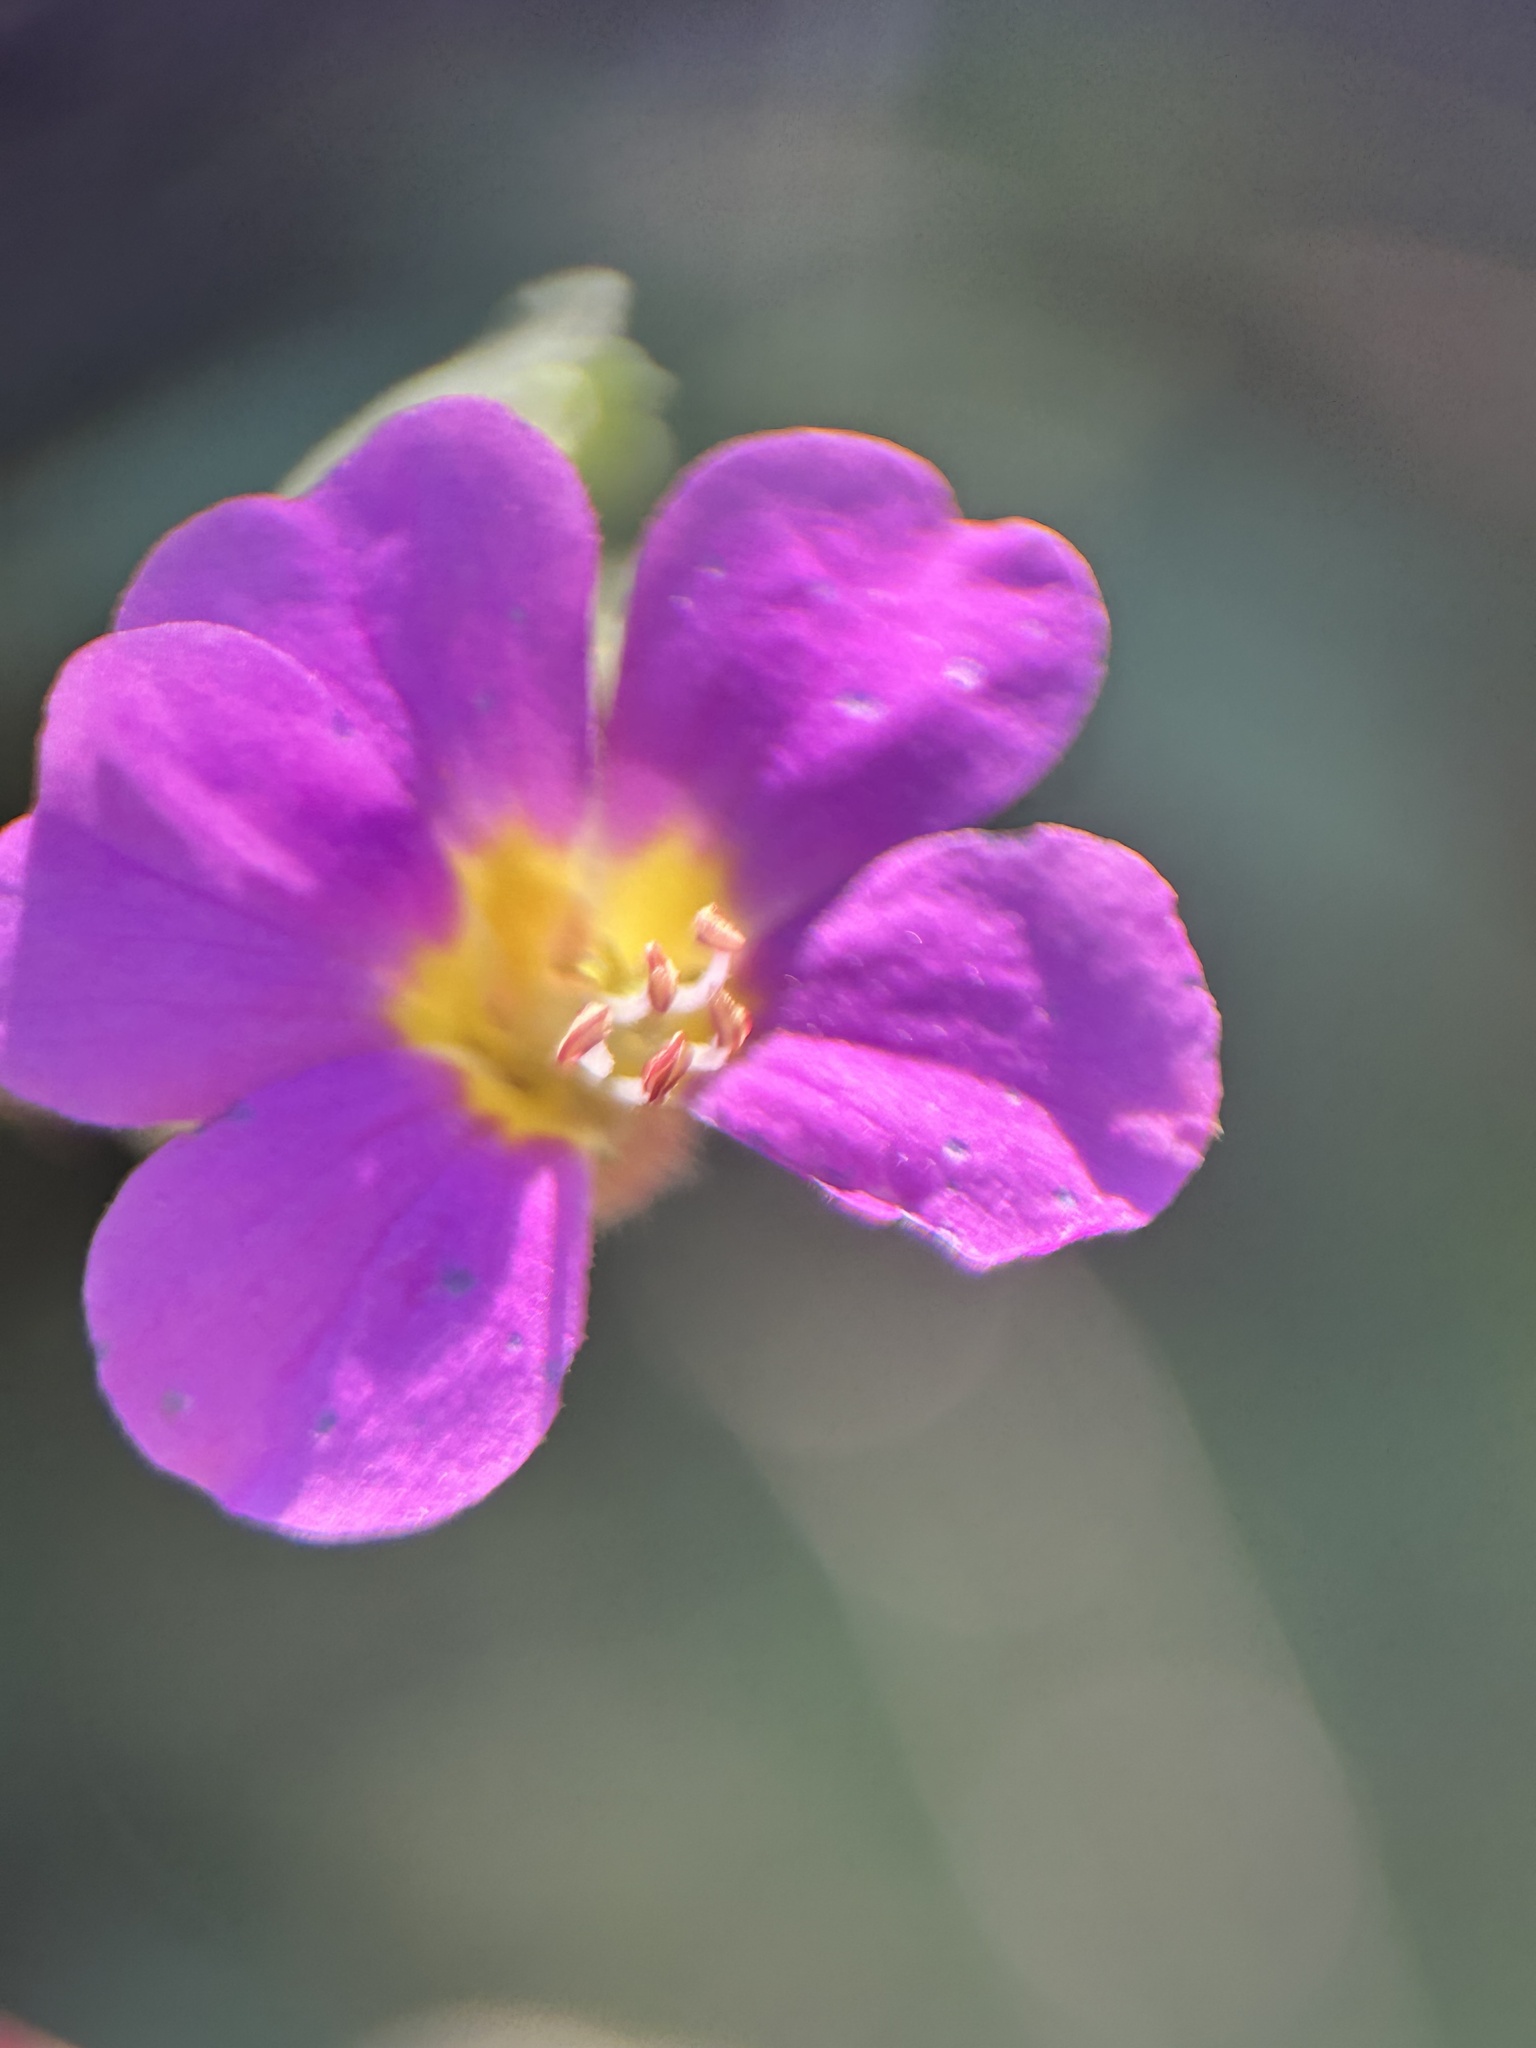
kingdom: Plantae
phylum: Tracheophyta
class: Magnoliopsida
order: Malvales
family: Malvaceae
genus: Melochia
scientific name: Melochia tomentosa
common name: Black torch
